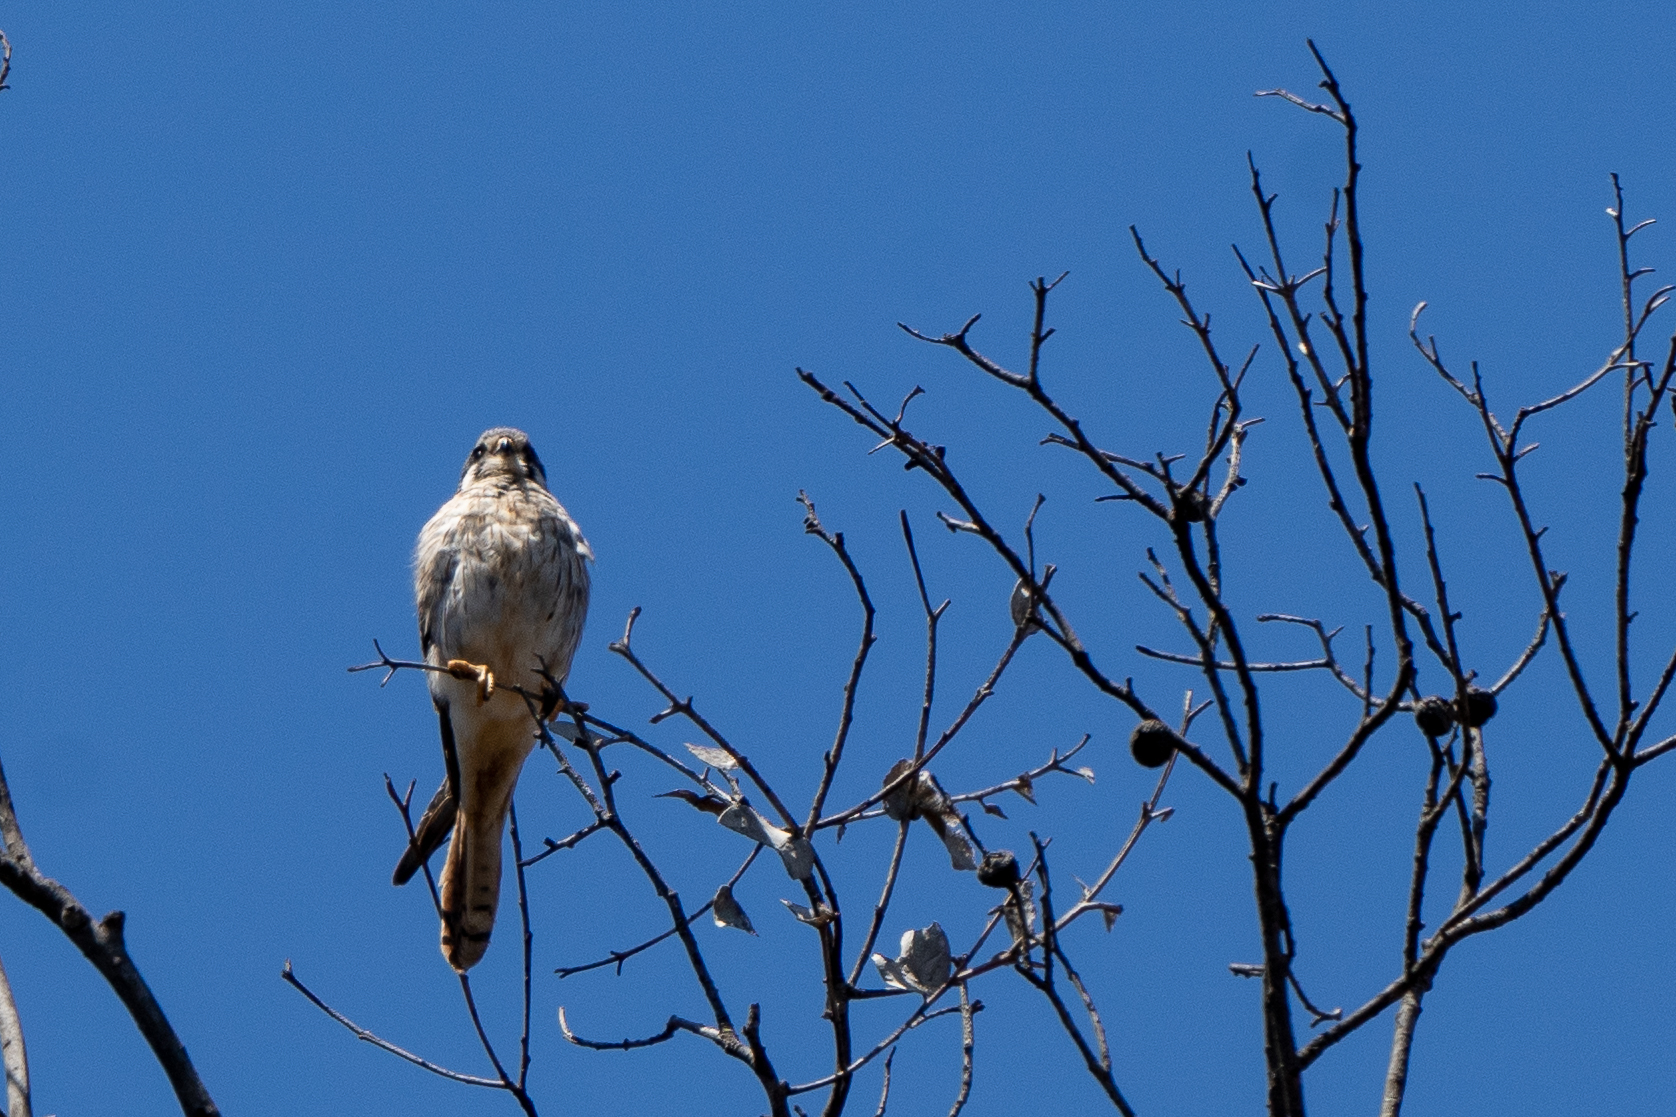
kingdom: Animalia
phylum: Chordata
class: Aves
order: Falconiformes
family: Falconidae
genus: Falco
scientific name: Falco sparverius
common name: American kestrel
